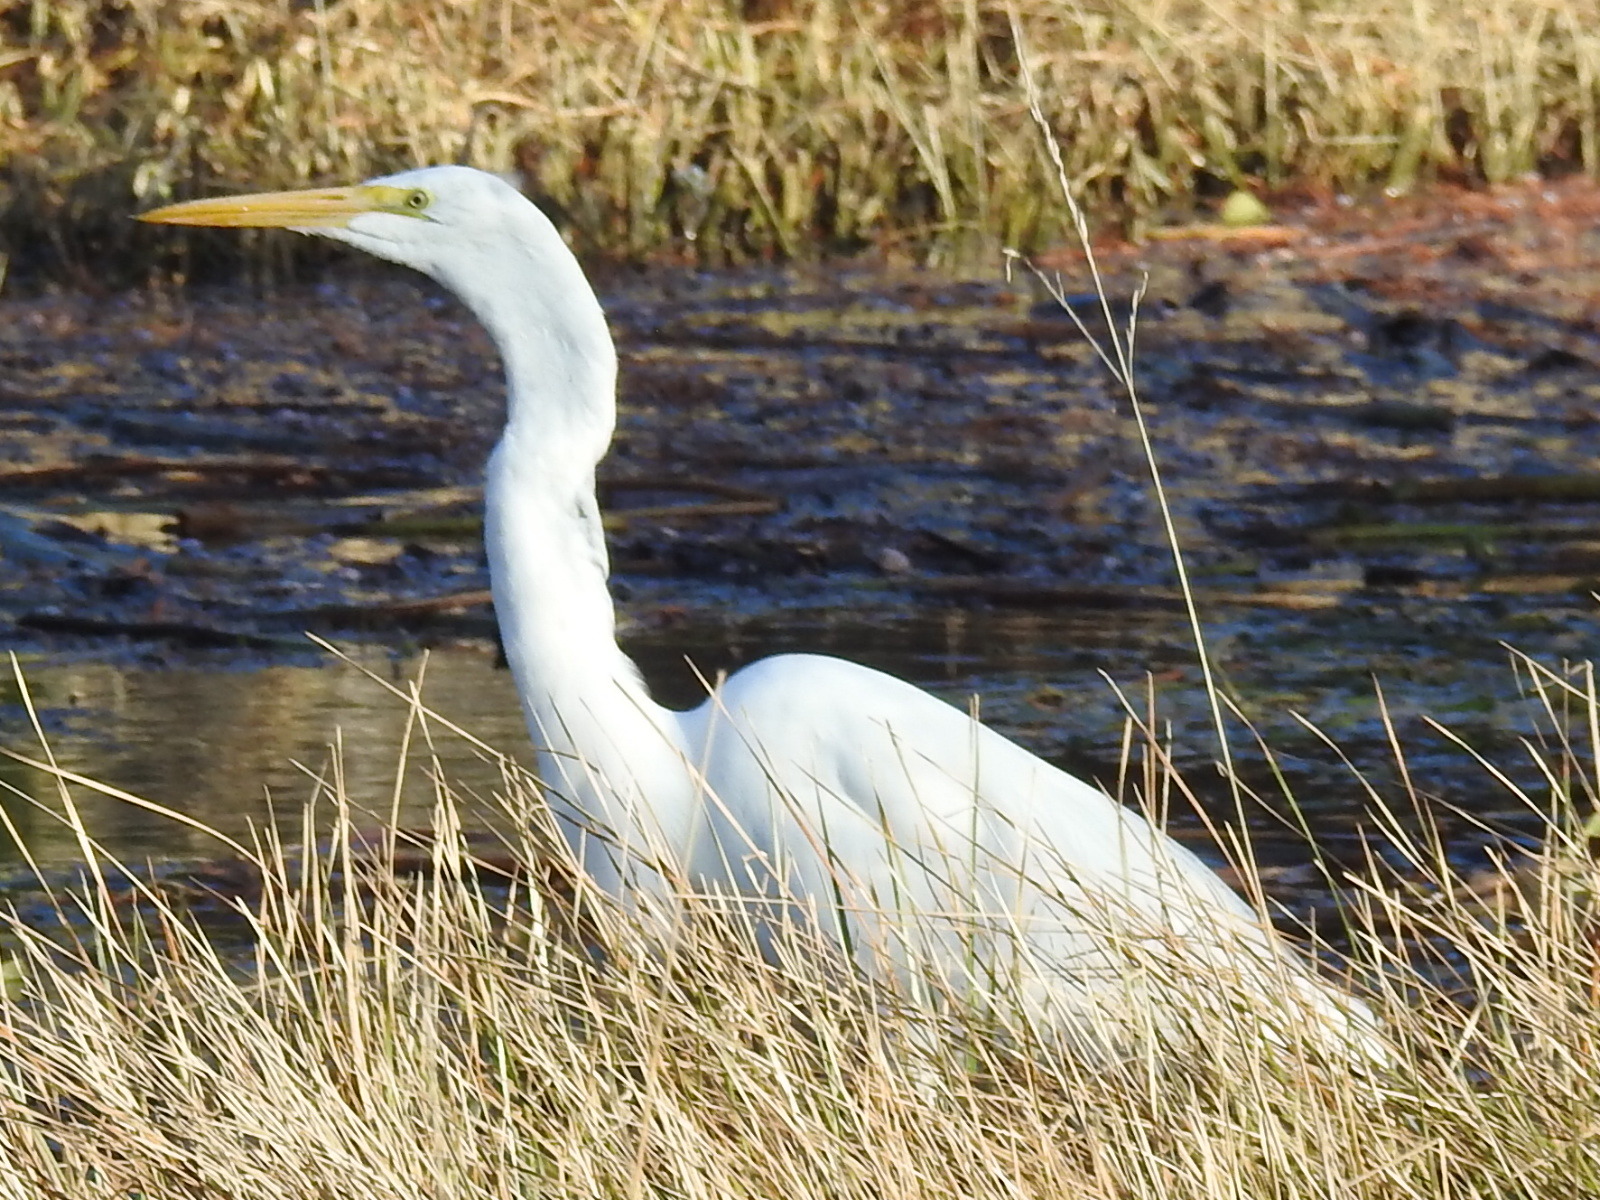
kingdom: Animalia
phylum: Chordata
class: Aves
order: Pelecaniformes
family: Ardeidae
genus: Ardea
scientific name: Ardea alba
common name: Great egret
